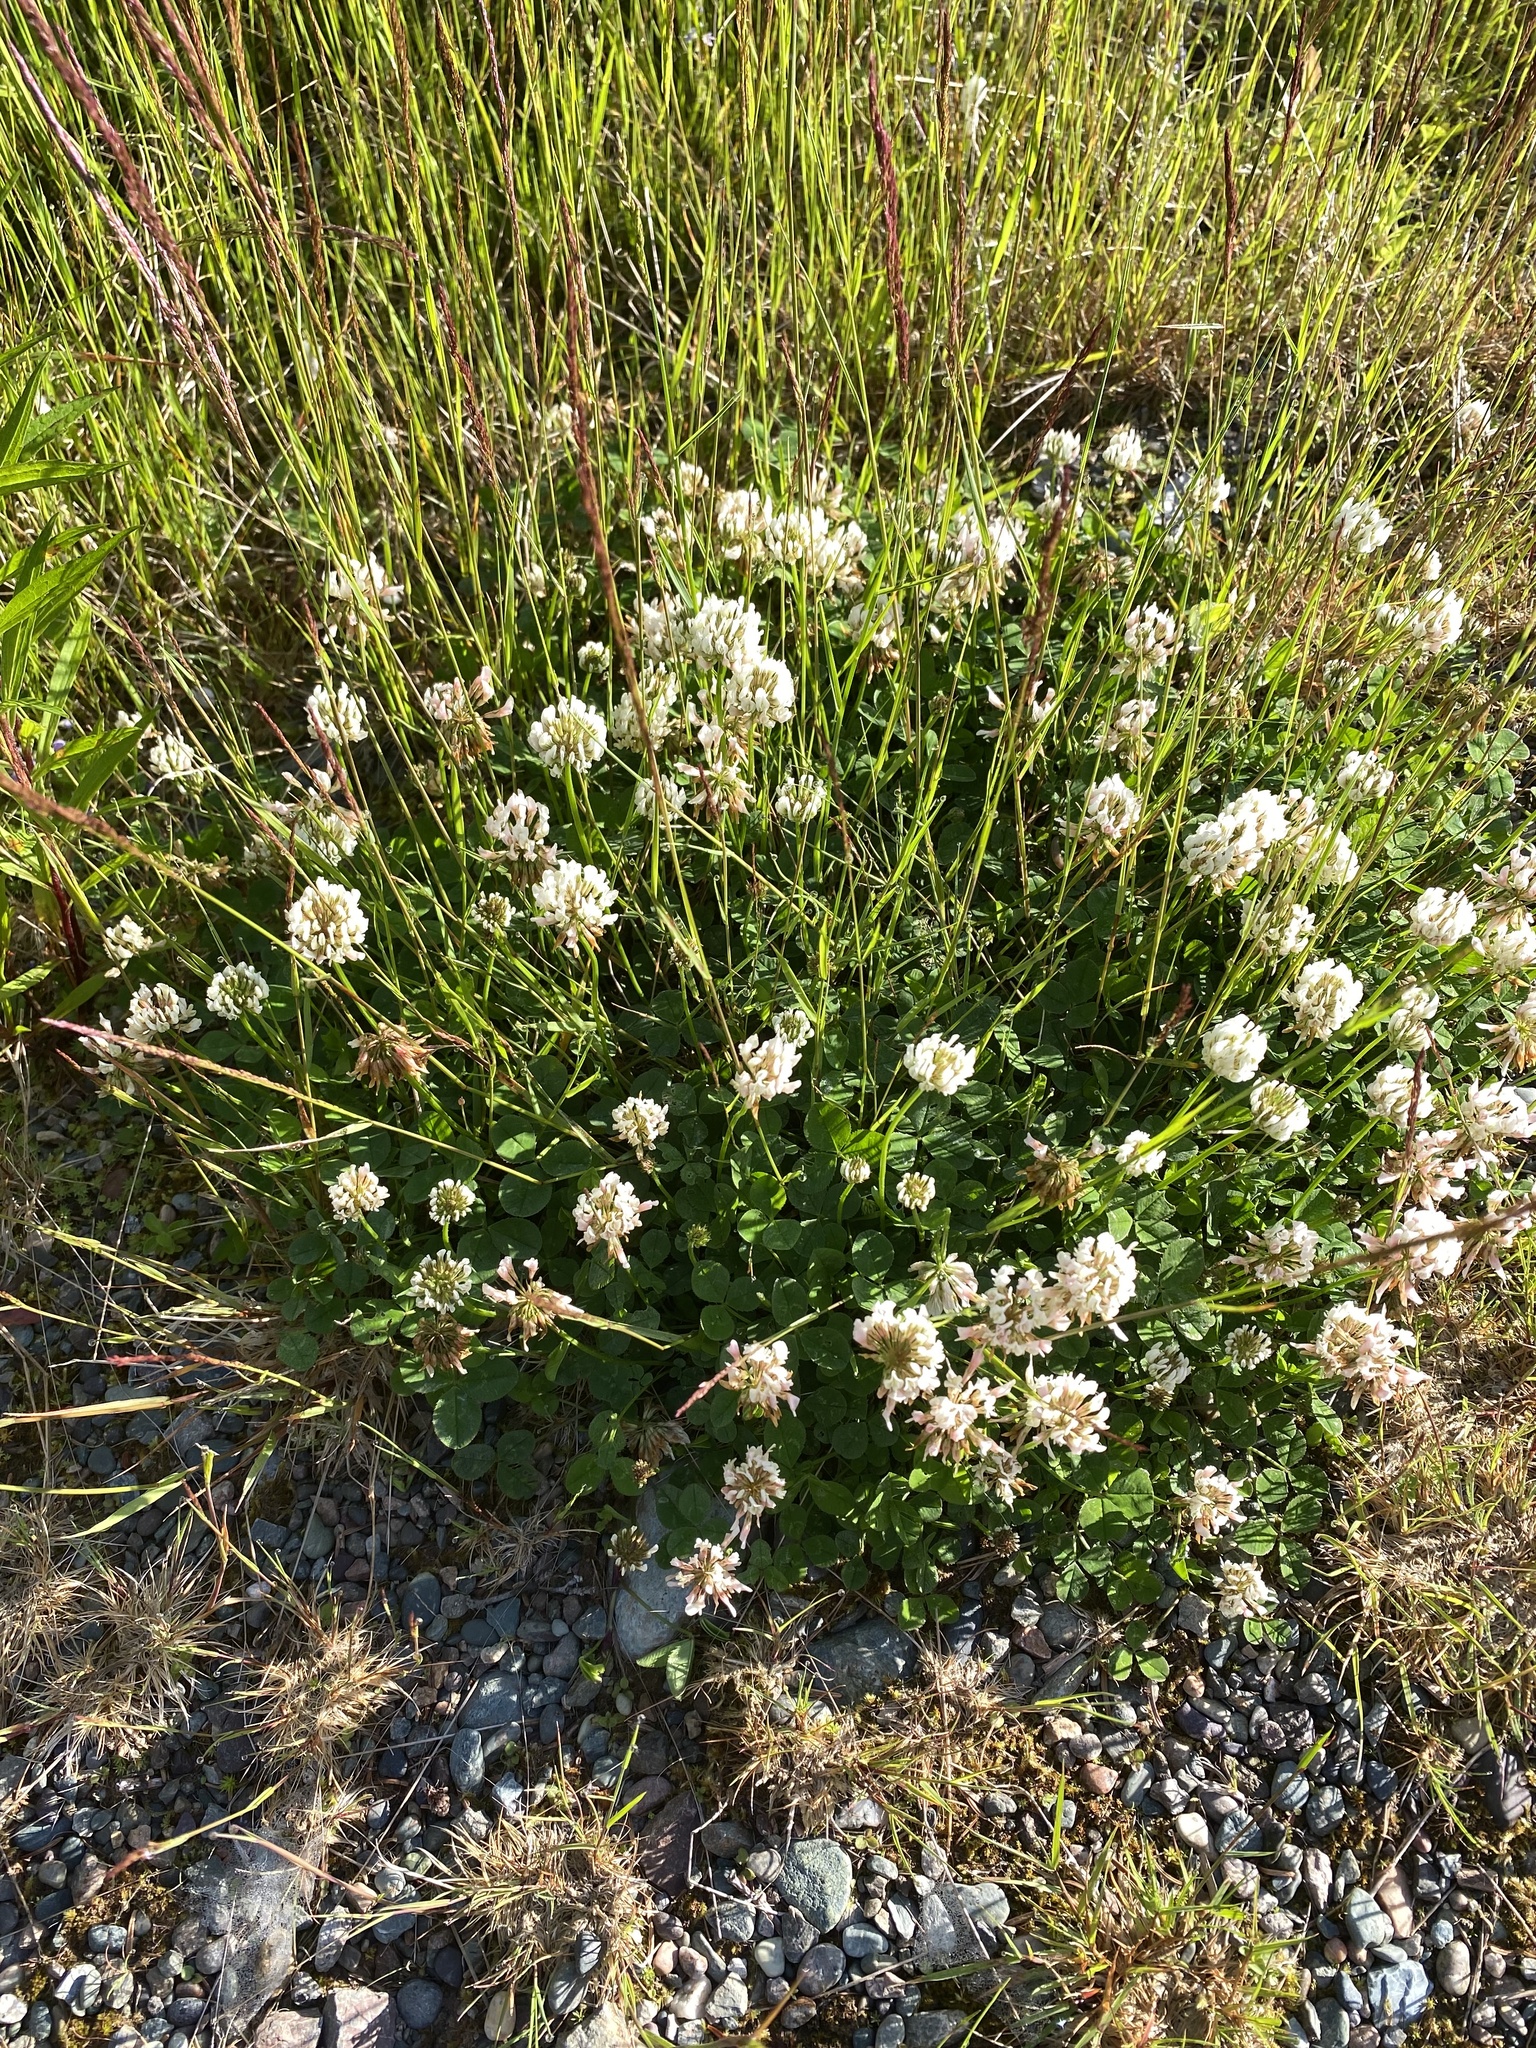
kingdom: Plantae
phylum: Tracheophyta
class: Magnoliopsida
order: Fabales
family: Fabaceae
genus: Trifolium
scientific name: Trifolium repens
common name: White clover
